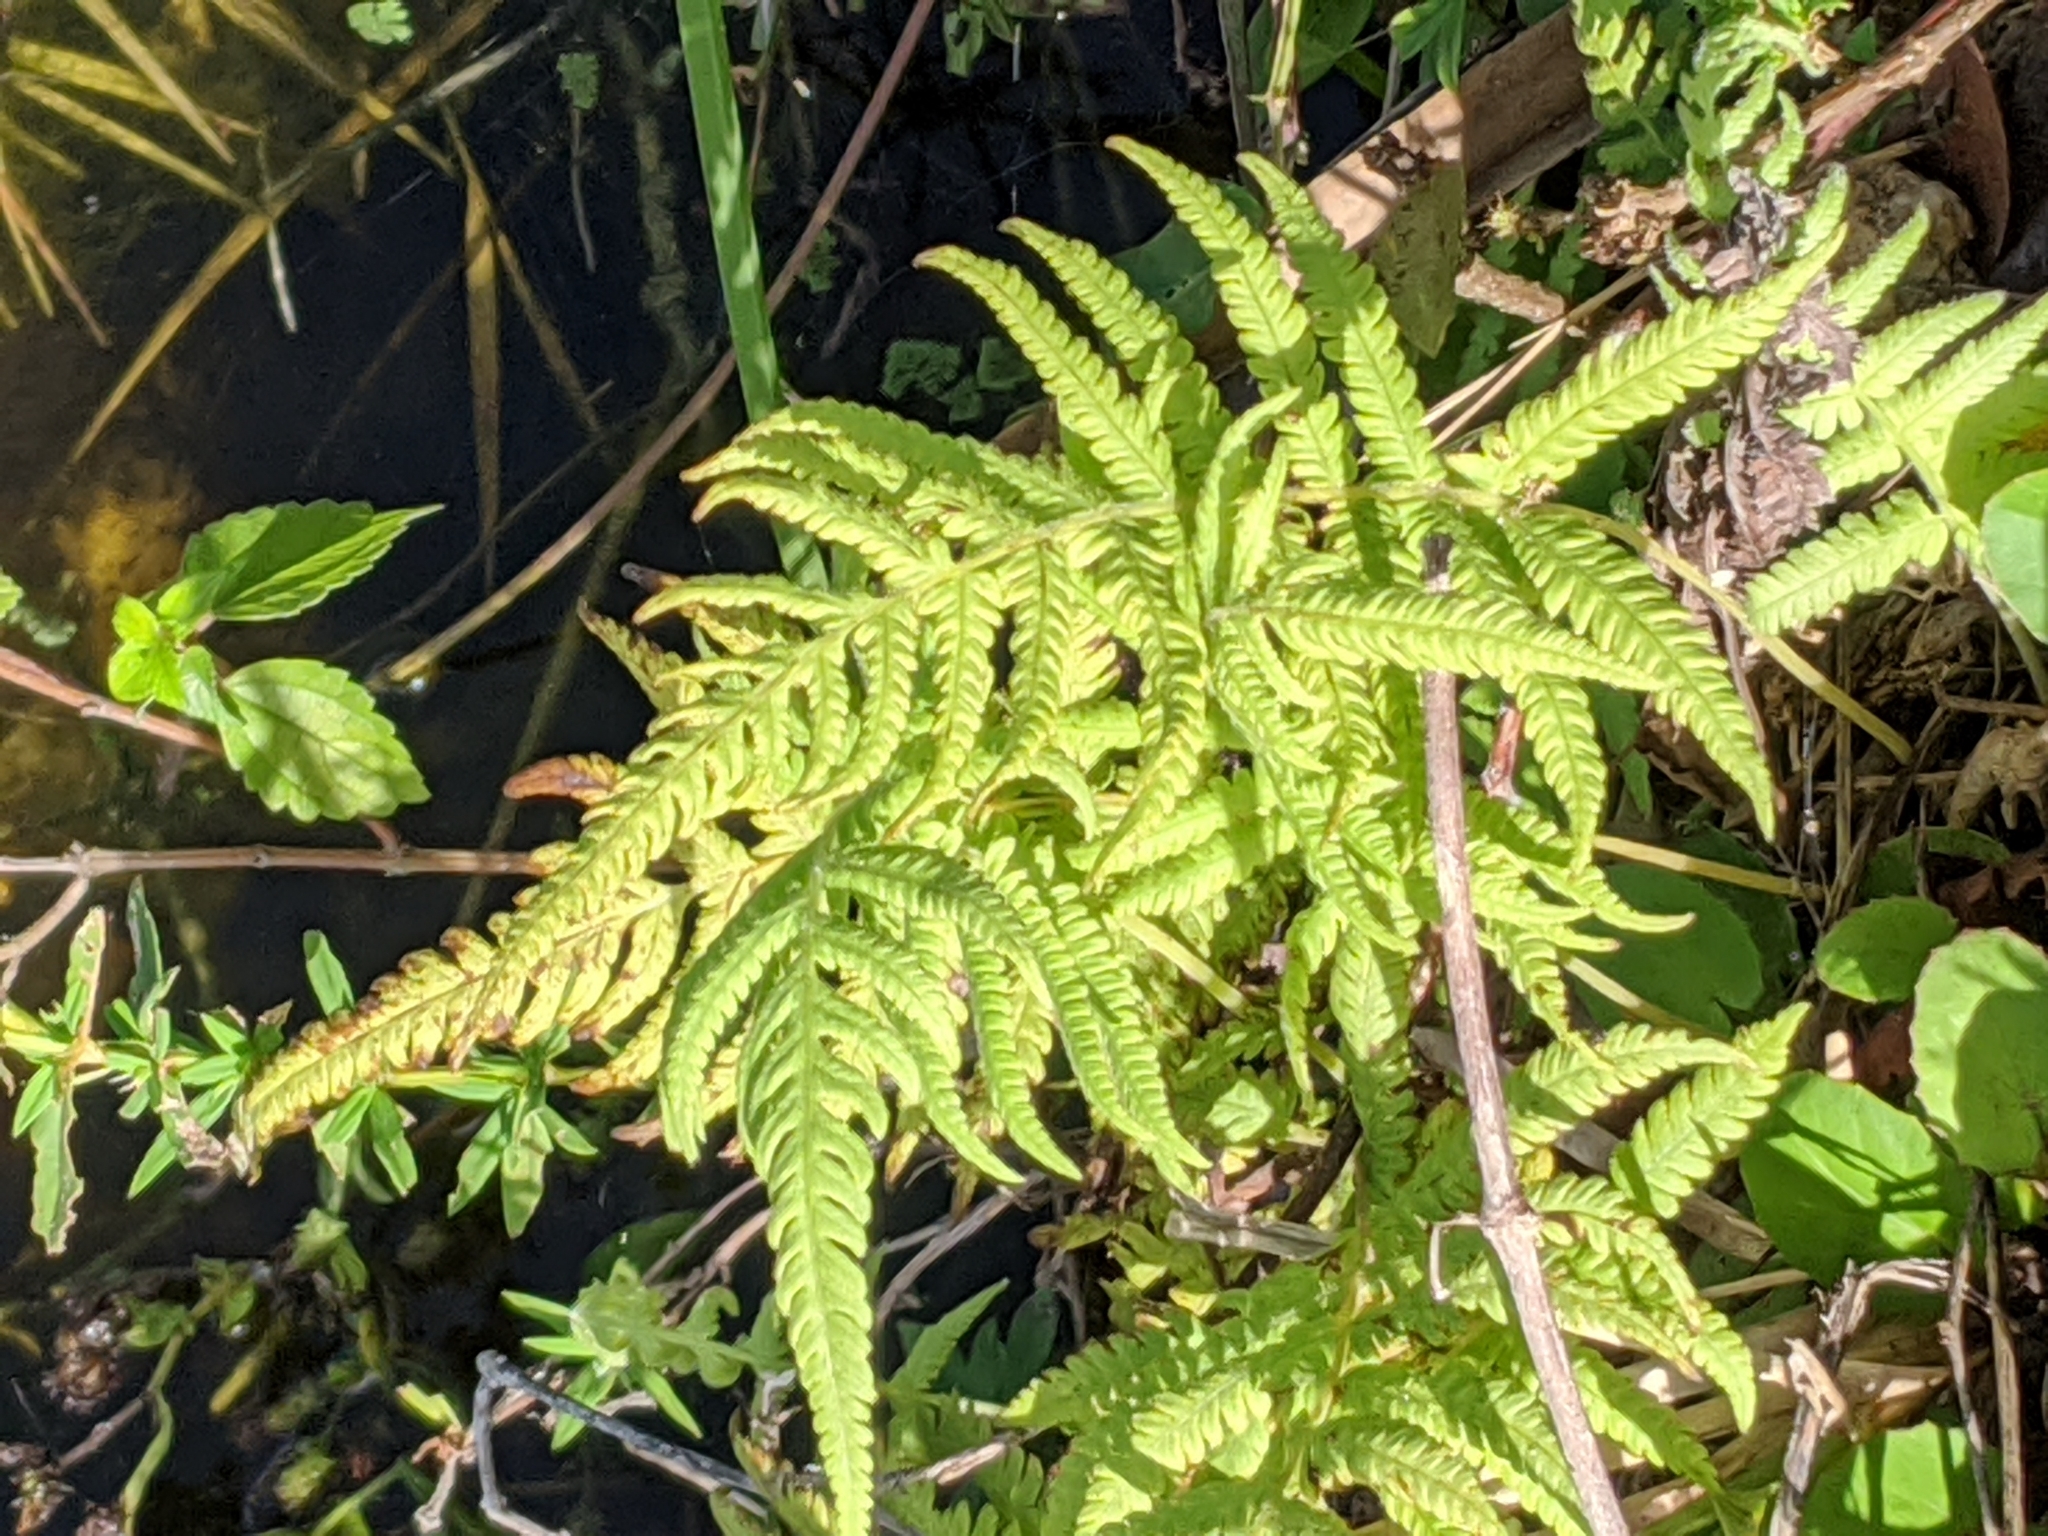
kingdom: Plantae
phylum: Tracheophyta
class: Polypodiopsida
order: Polypodiales
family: Thelypteridaceae
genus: Pelazoneuron
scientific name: Pelazoneuron kunthii
